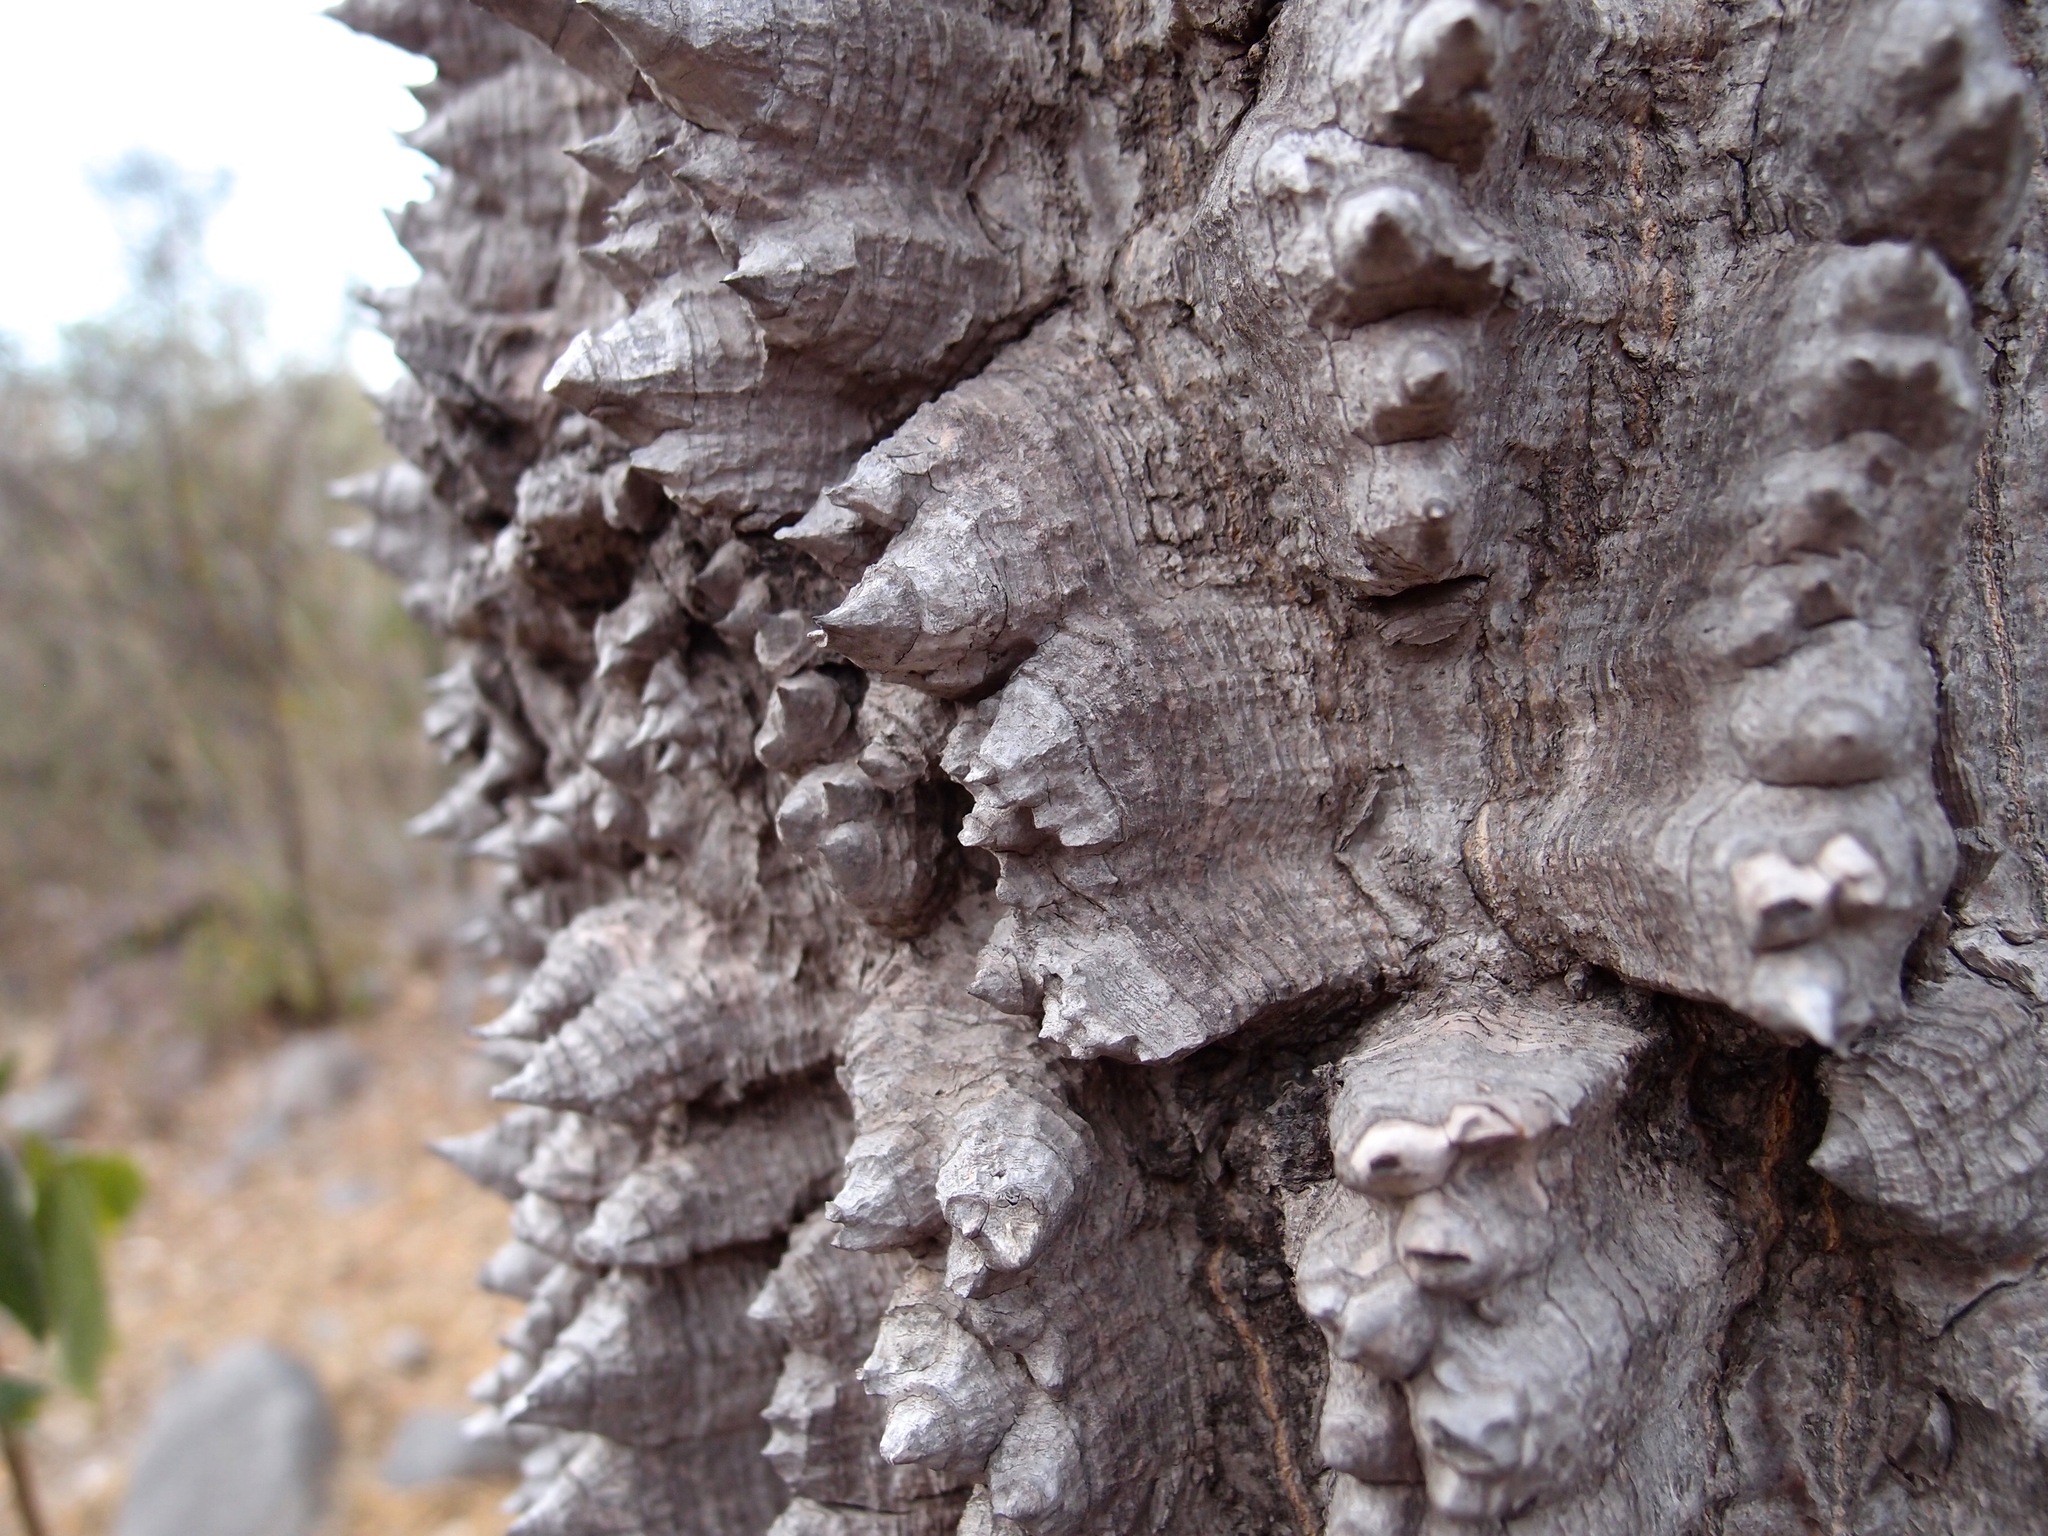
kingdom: Plantae
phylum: Tracheophyta
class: Magnoliopsida
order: Malvales
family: Malvaceae
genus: Ceiba
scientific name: Ceiba aesculifolia
